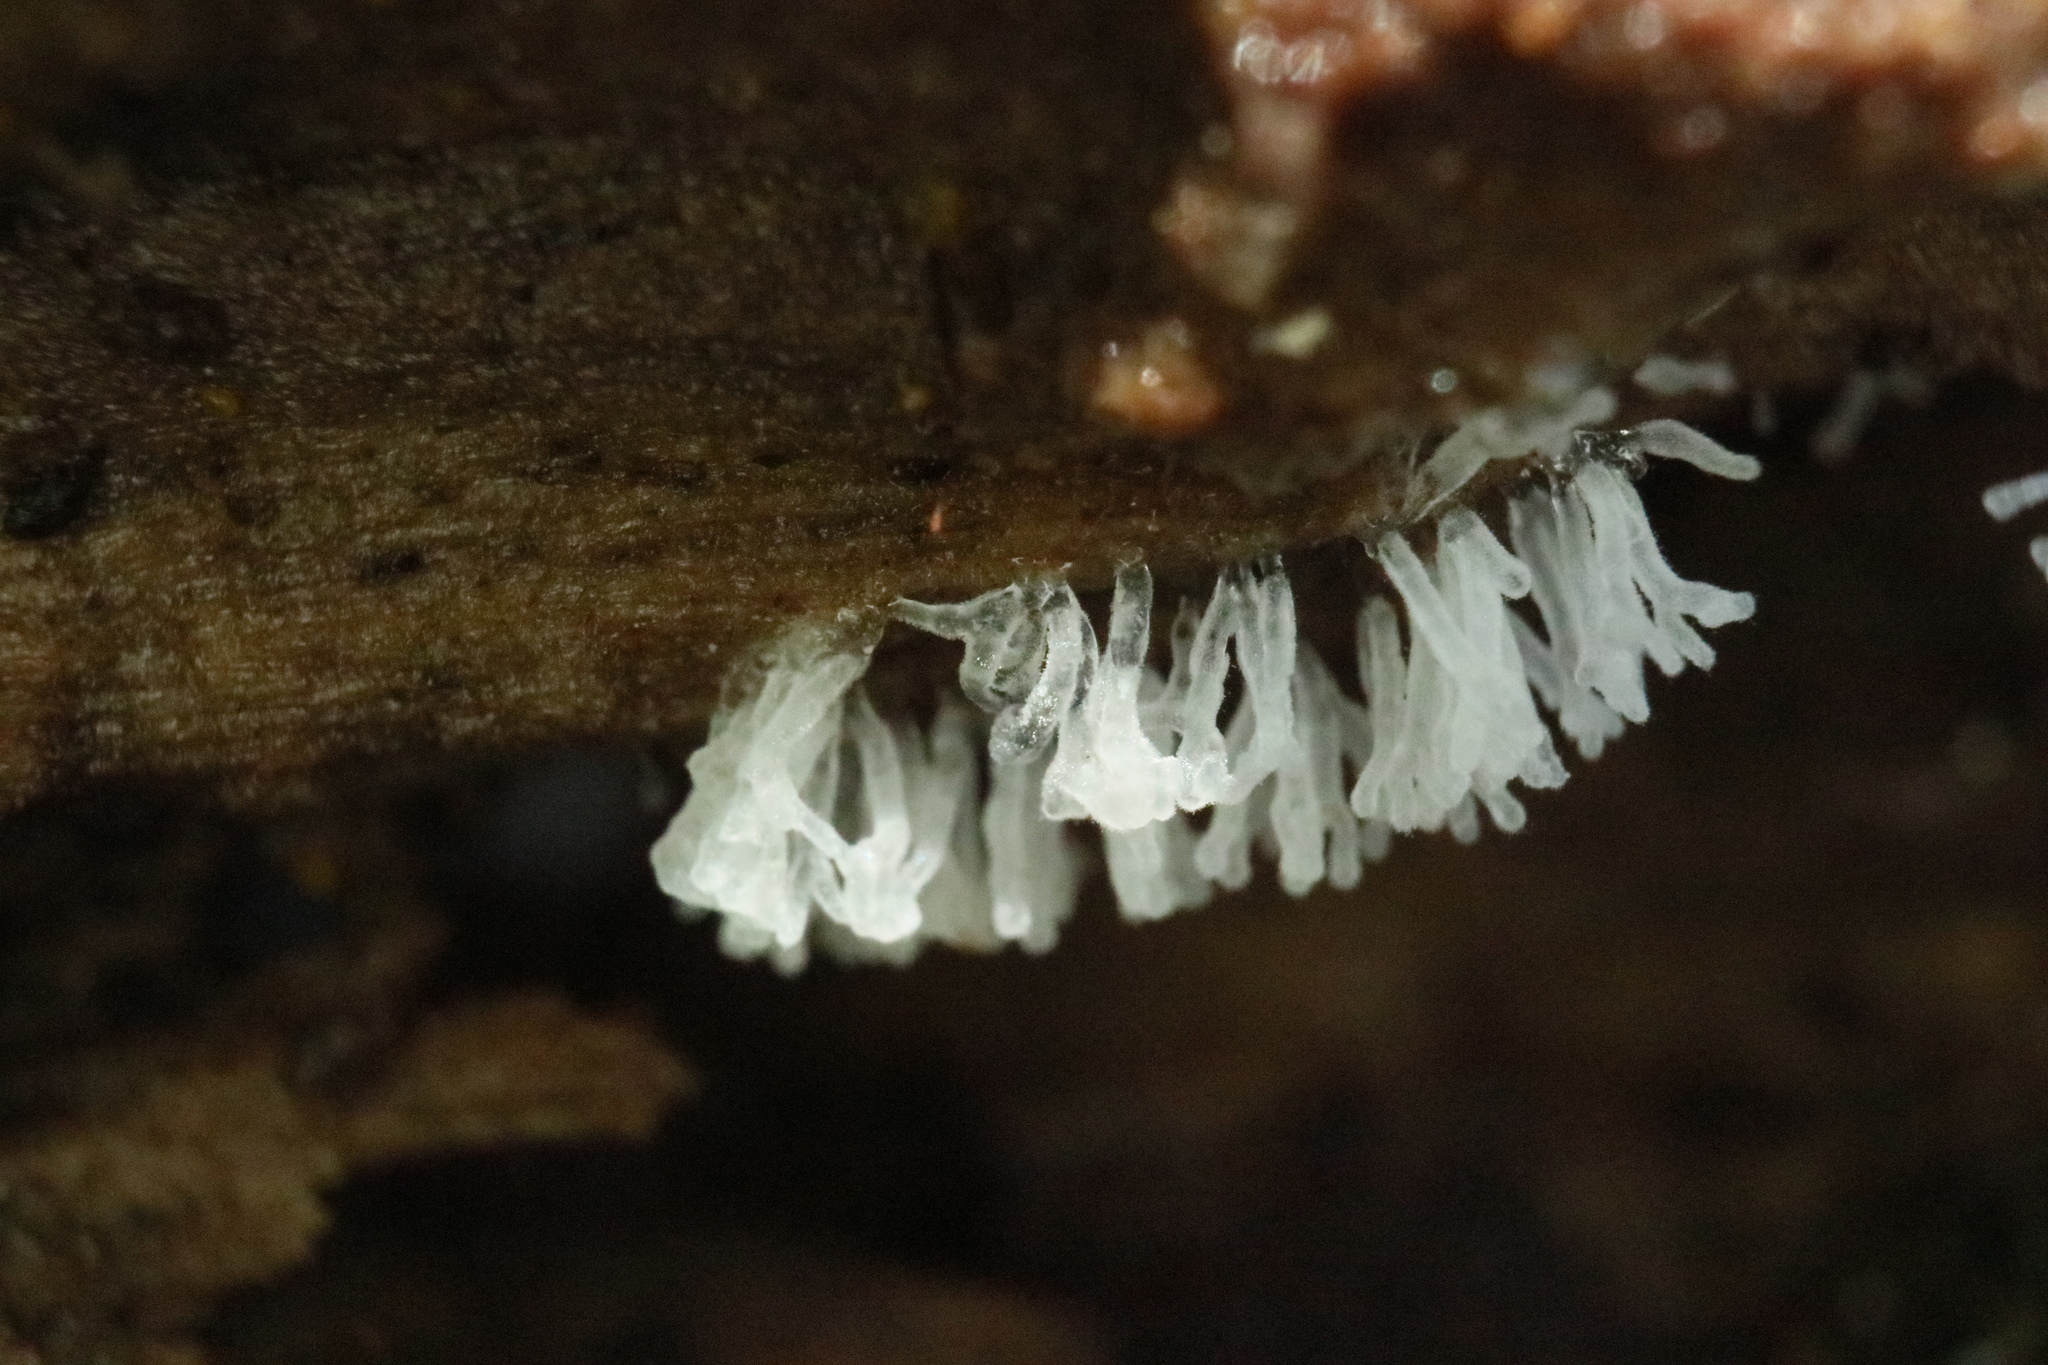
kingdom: Protozoa
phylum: Mycetozoa
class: Protosteliomycetes
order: Ceratiomyxales
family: Ceratiomyxaceae
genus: Ceratiomyxa
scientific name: Ceratiomyxa fruticulosa
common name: Honeycomb coral slime mold
